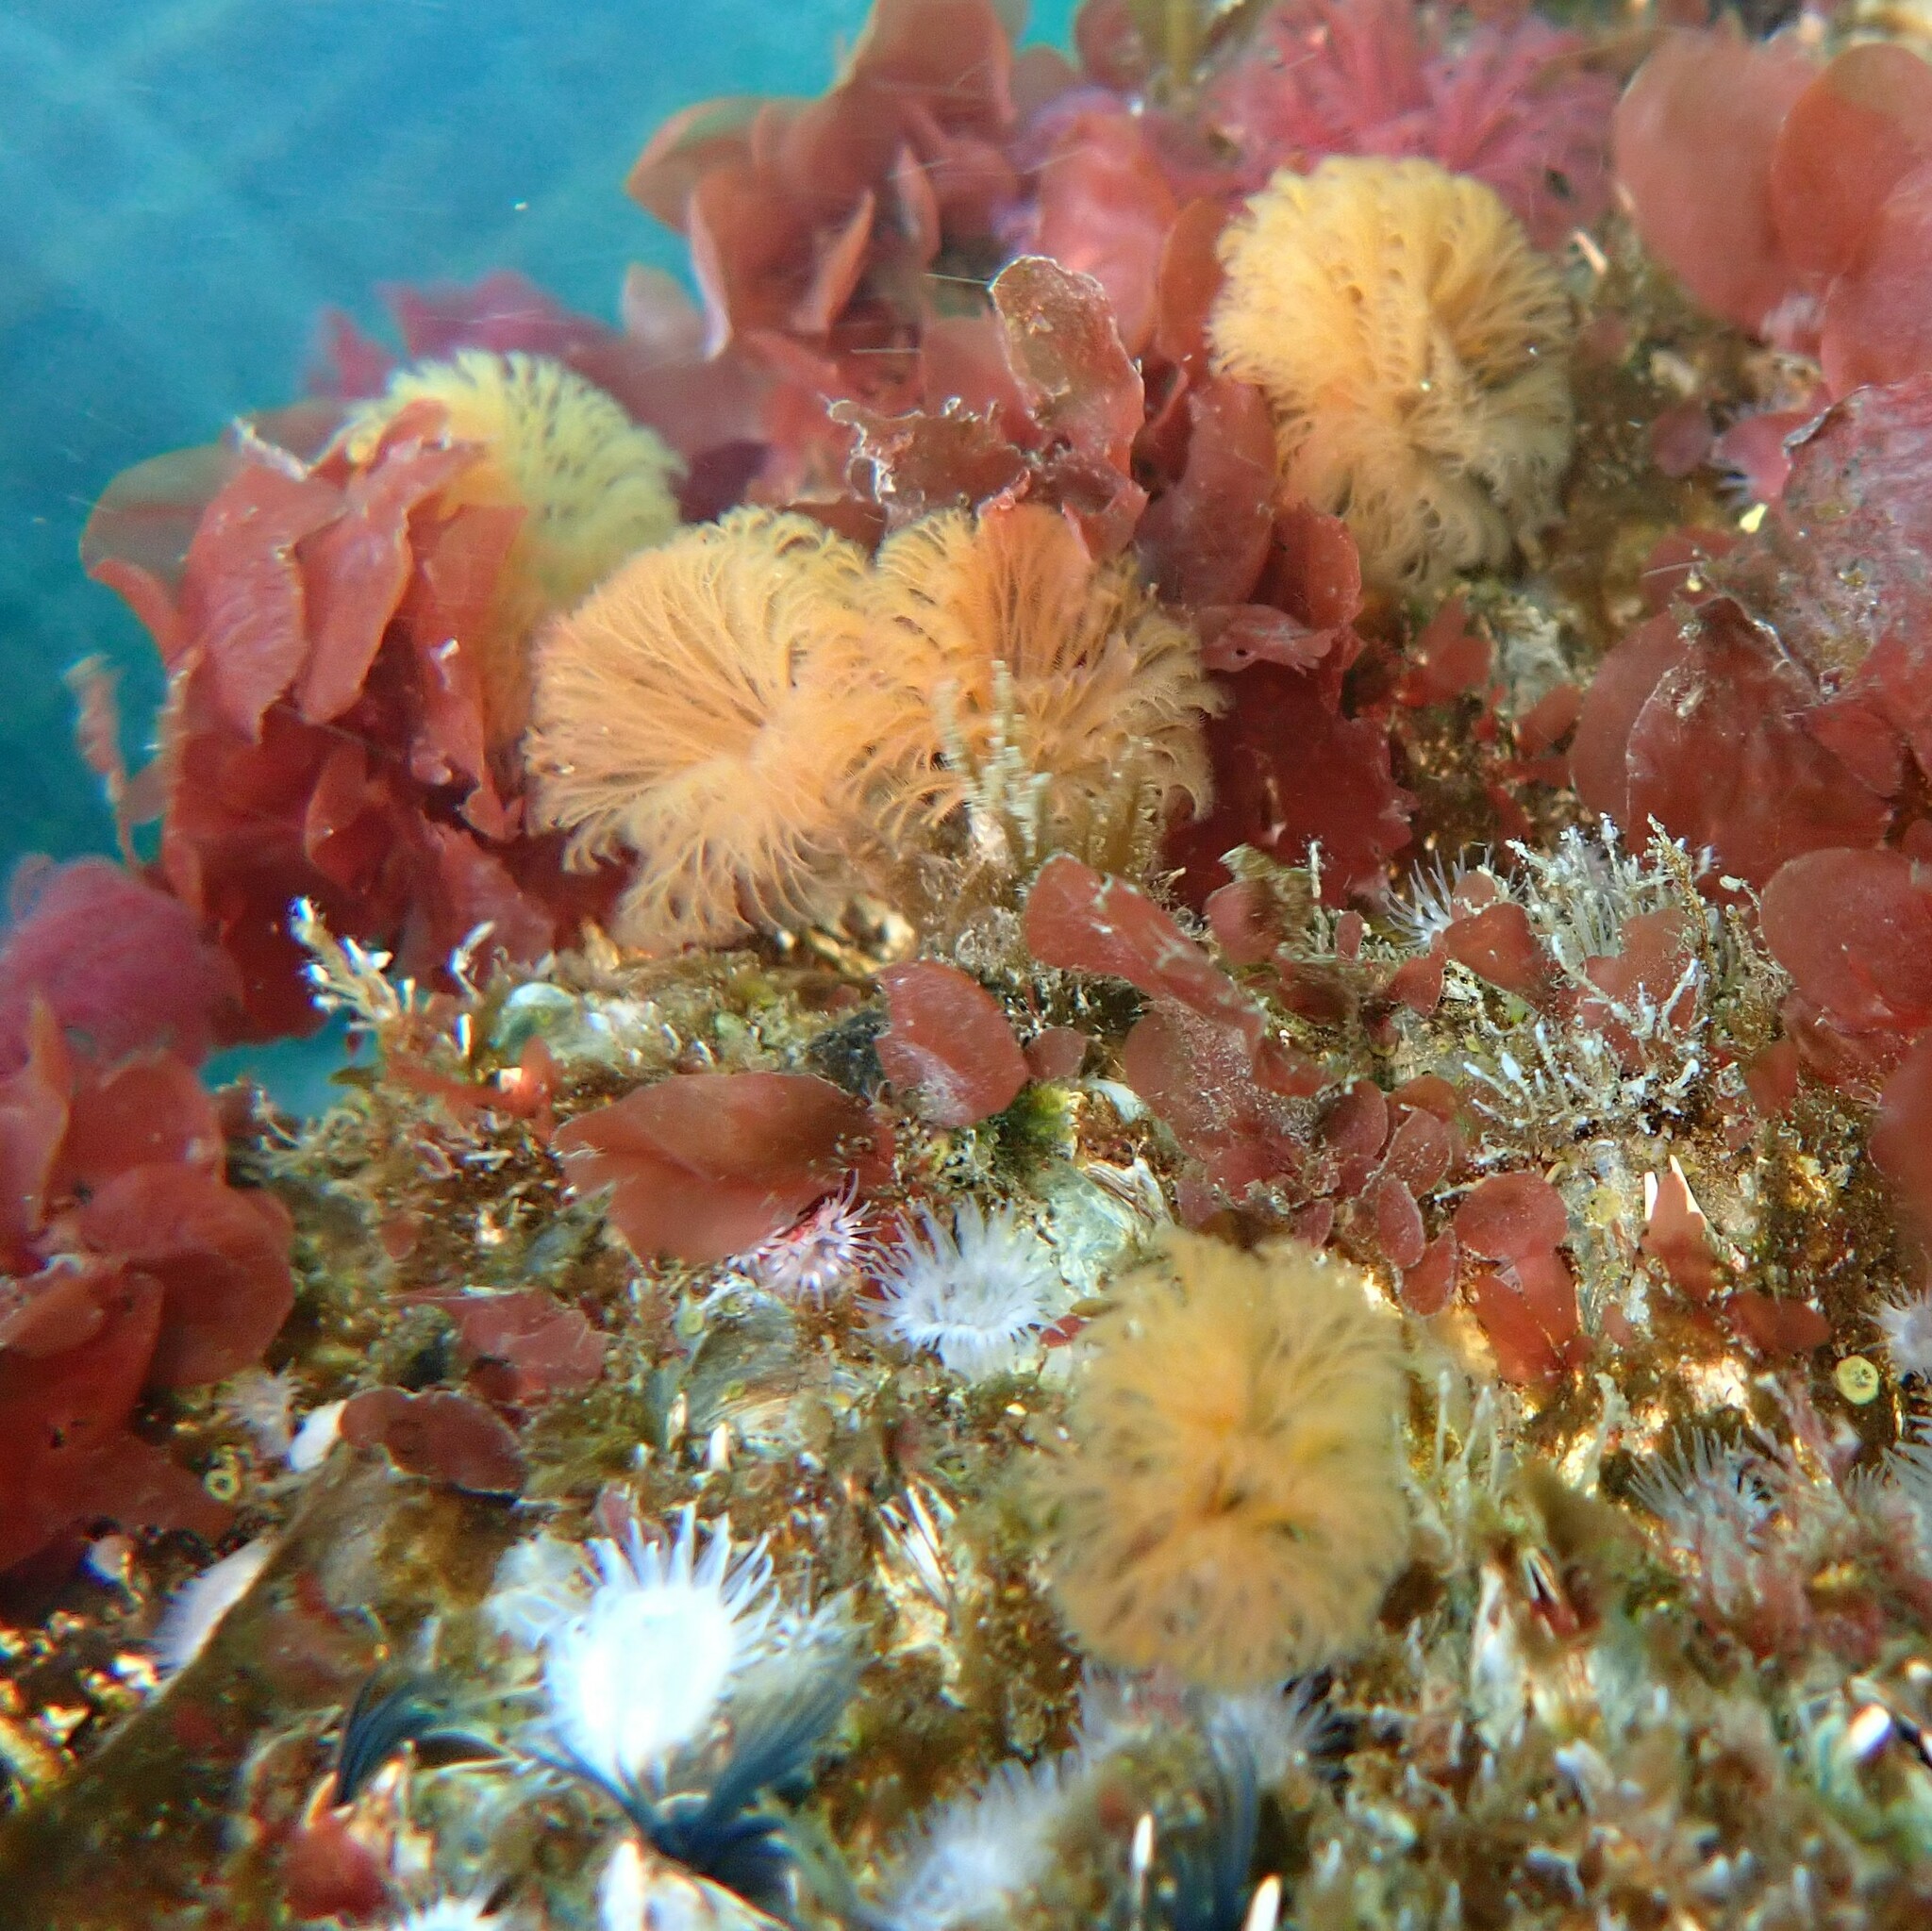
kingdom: Animalia
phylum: Annelida
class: Polychaeta
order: Sabellida
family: Sabellidae
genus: Schizobranchia
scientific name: Schizobranchia insignis
